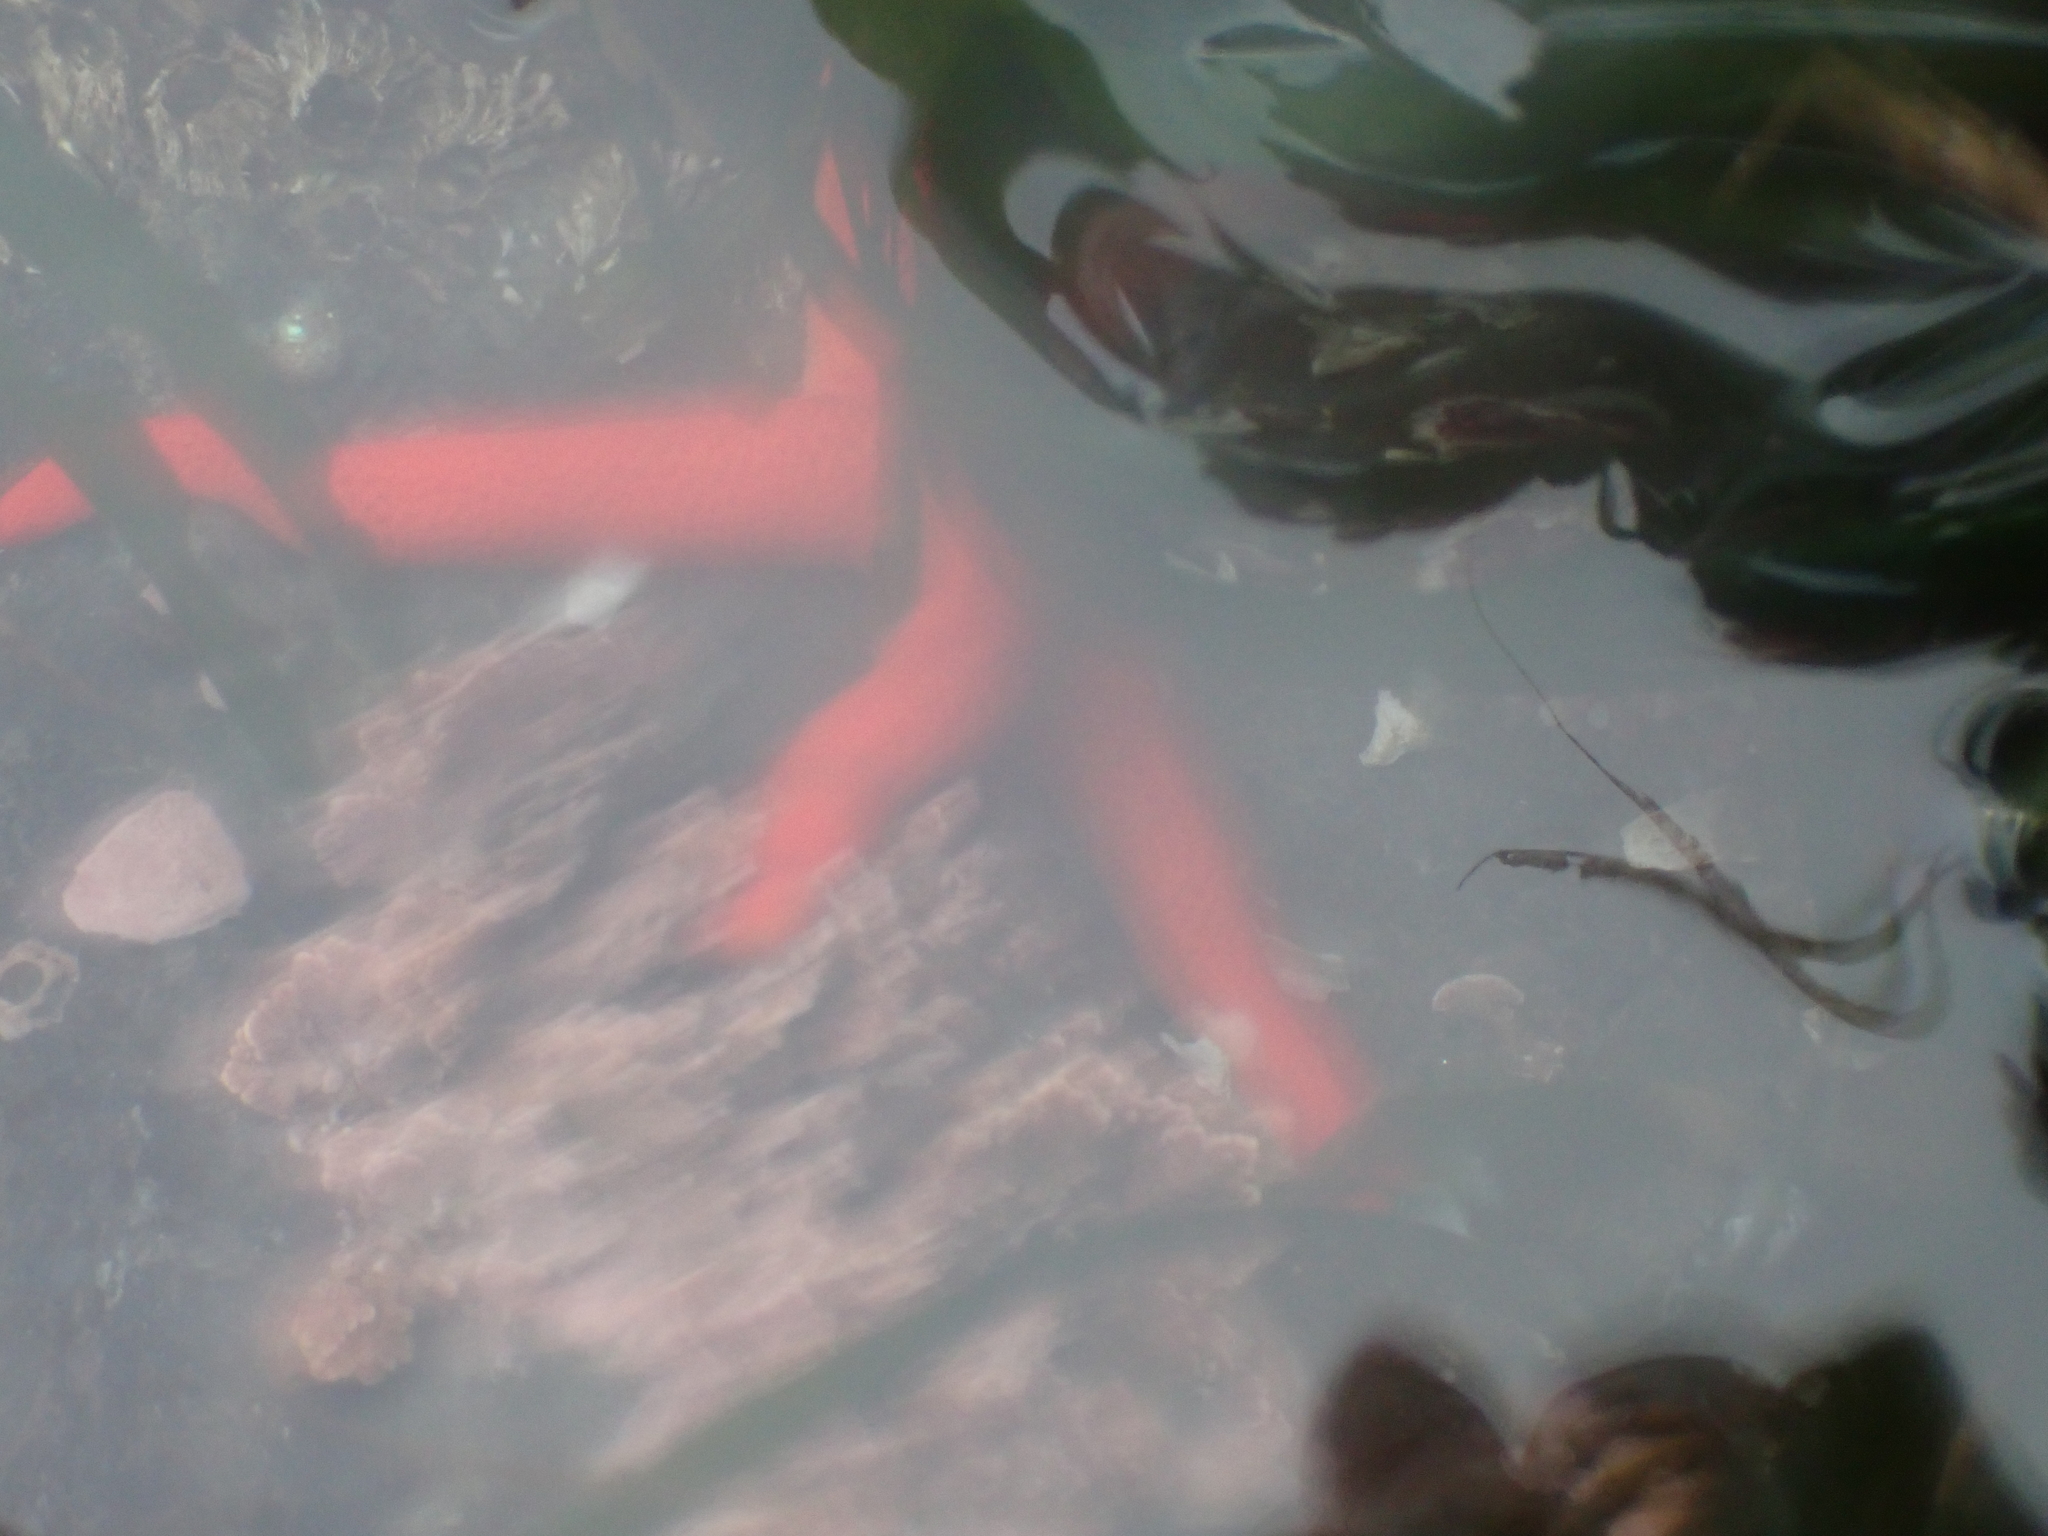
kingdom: Animalia
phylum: Echinodermata
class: Asteroidea
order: Spinulosida
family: Echinasteridae
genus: Henricia
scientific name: Henricia leviuscula
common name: Pacific blood star
